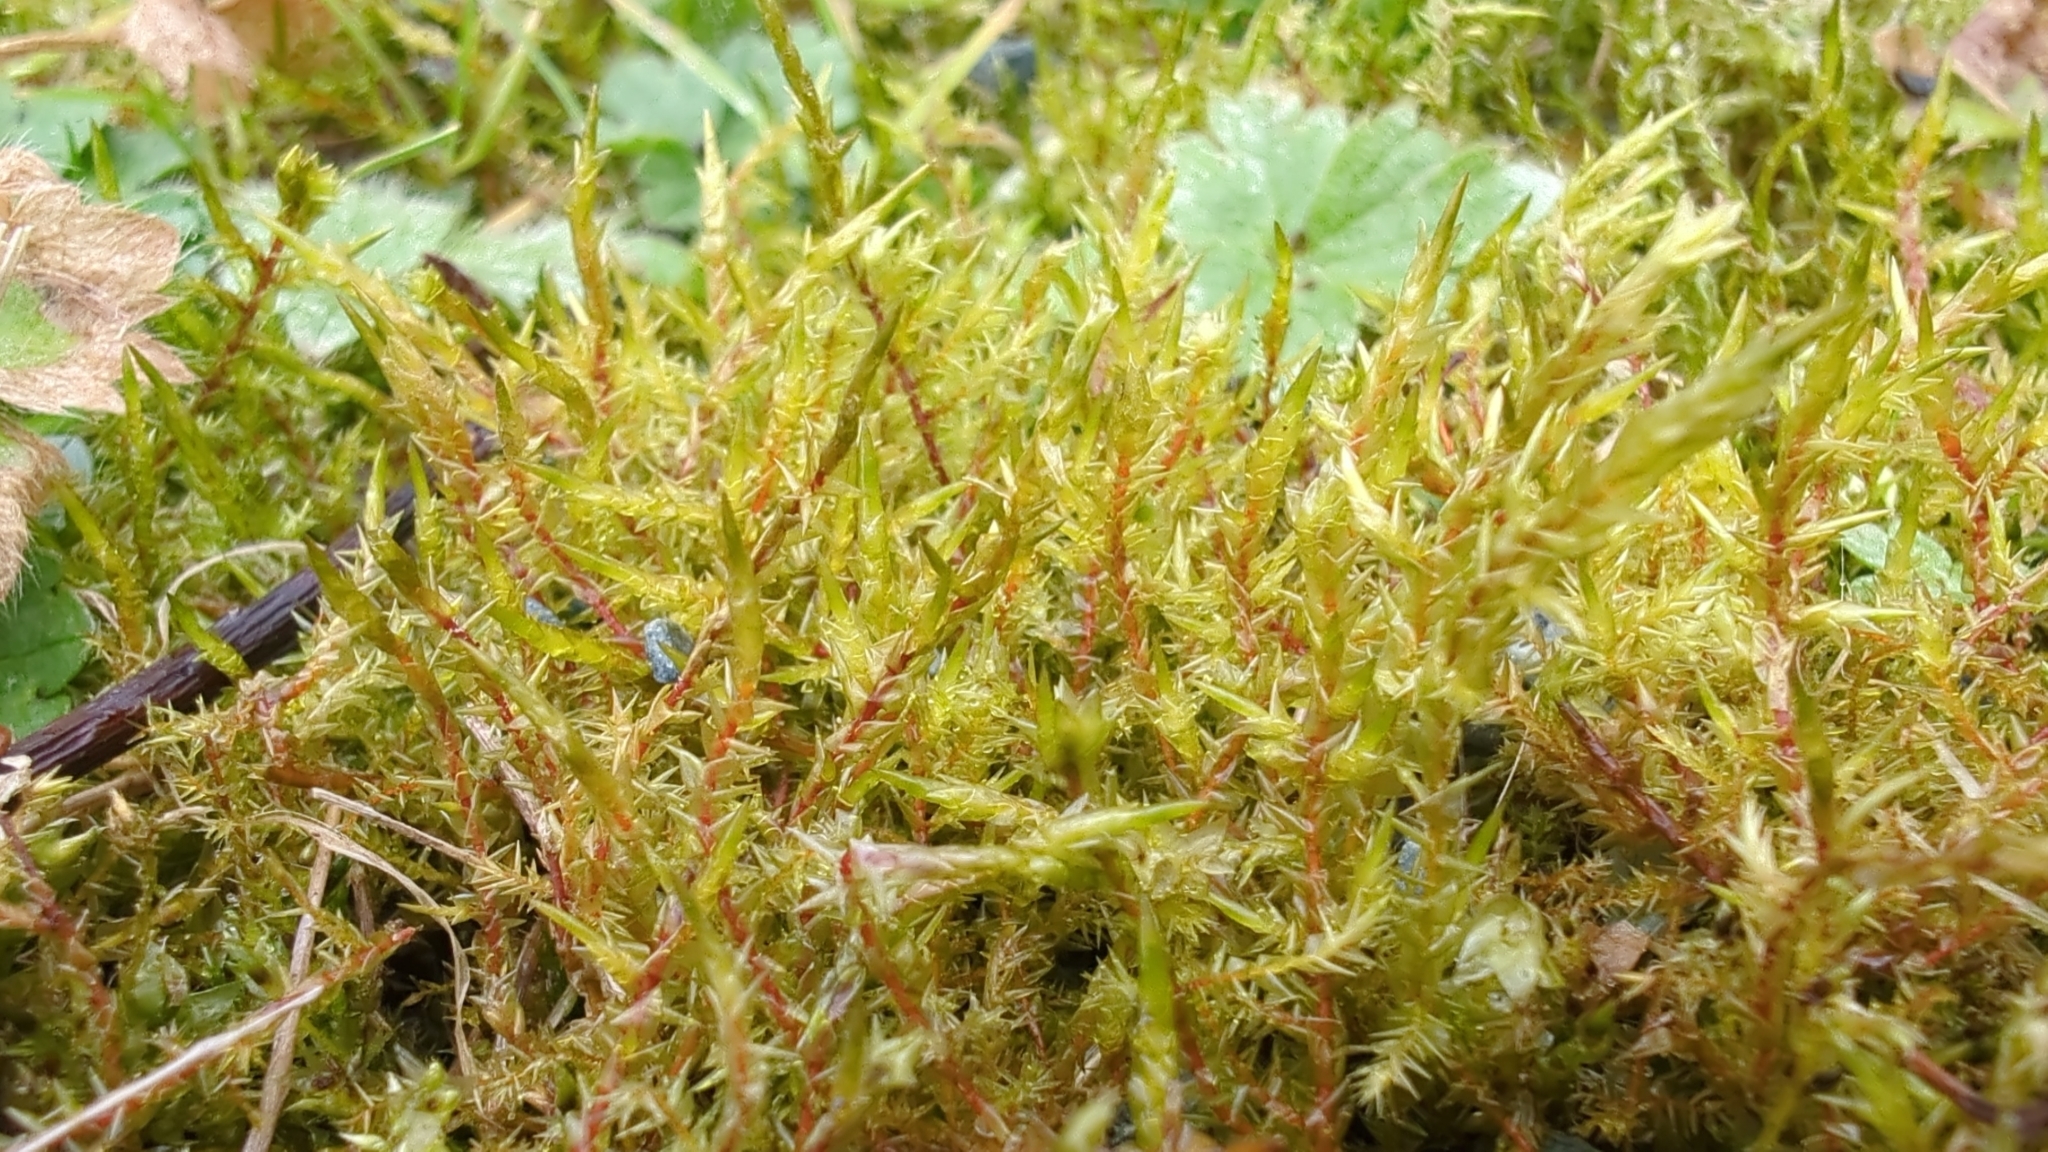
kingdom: Plantae
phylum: Bryophyta
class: Bryopsida
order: Hypnales
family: Pylaisiaceae
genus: Calliergonella
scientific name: Calliergonella cuspidata
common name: Common large wetland moss
